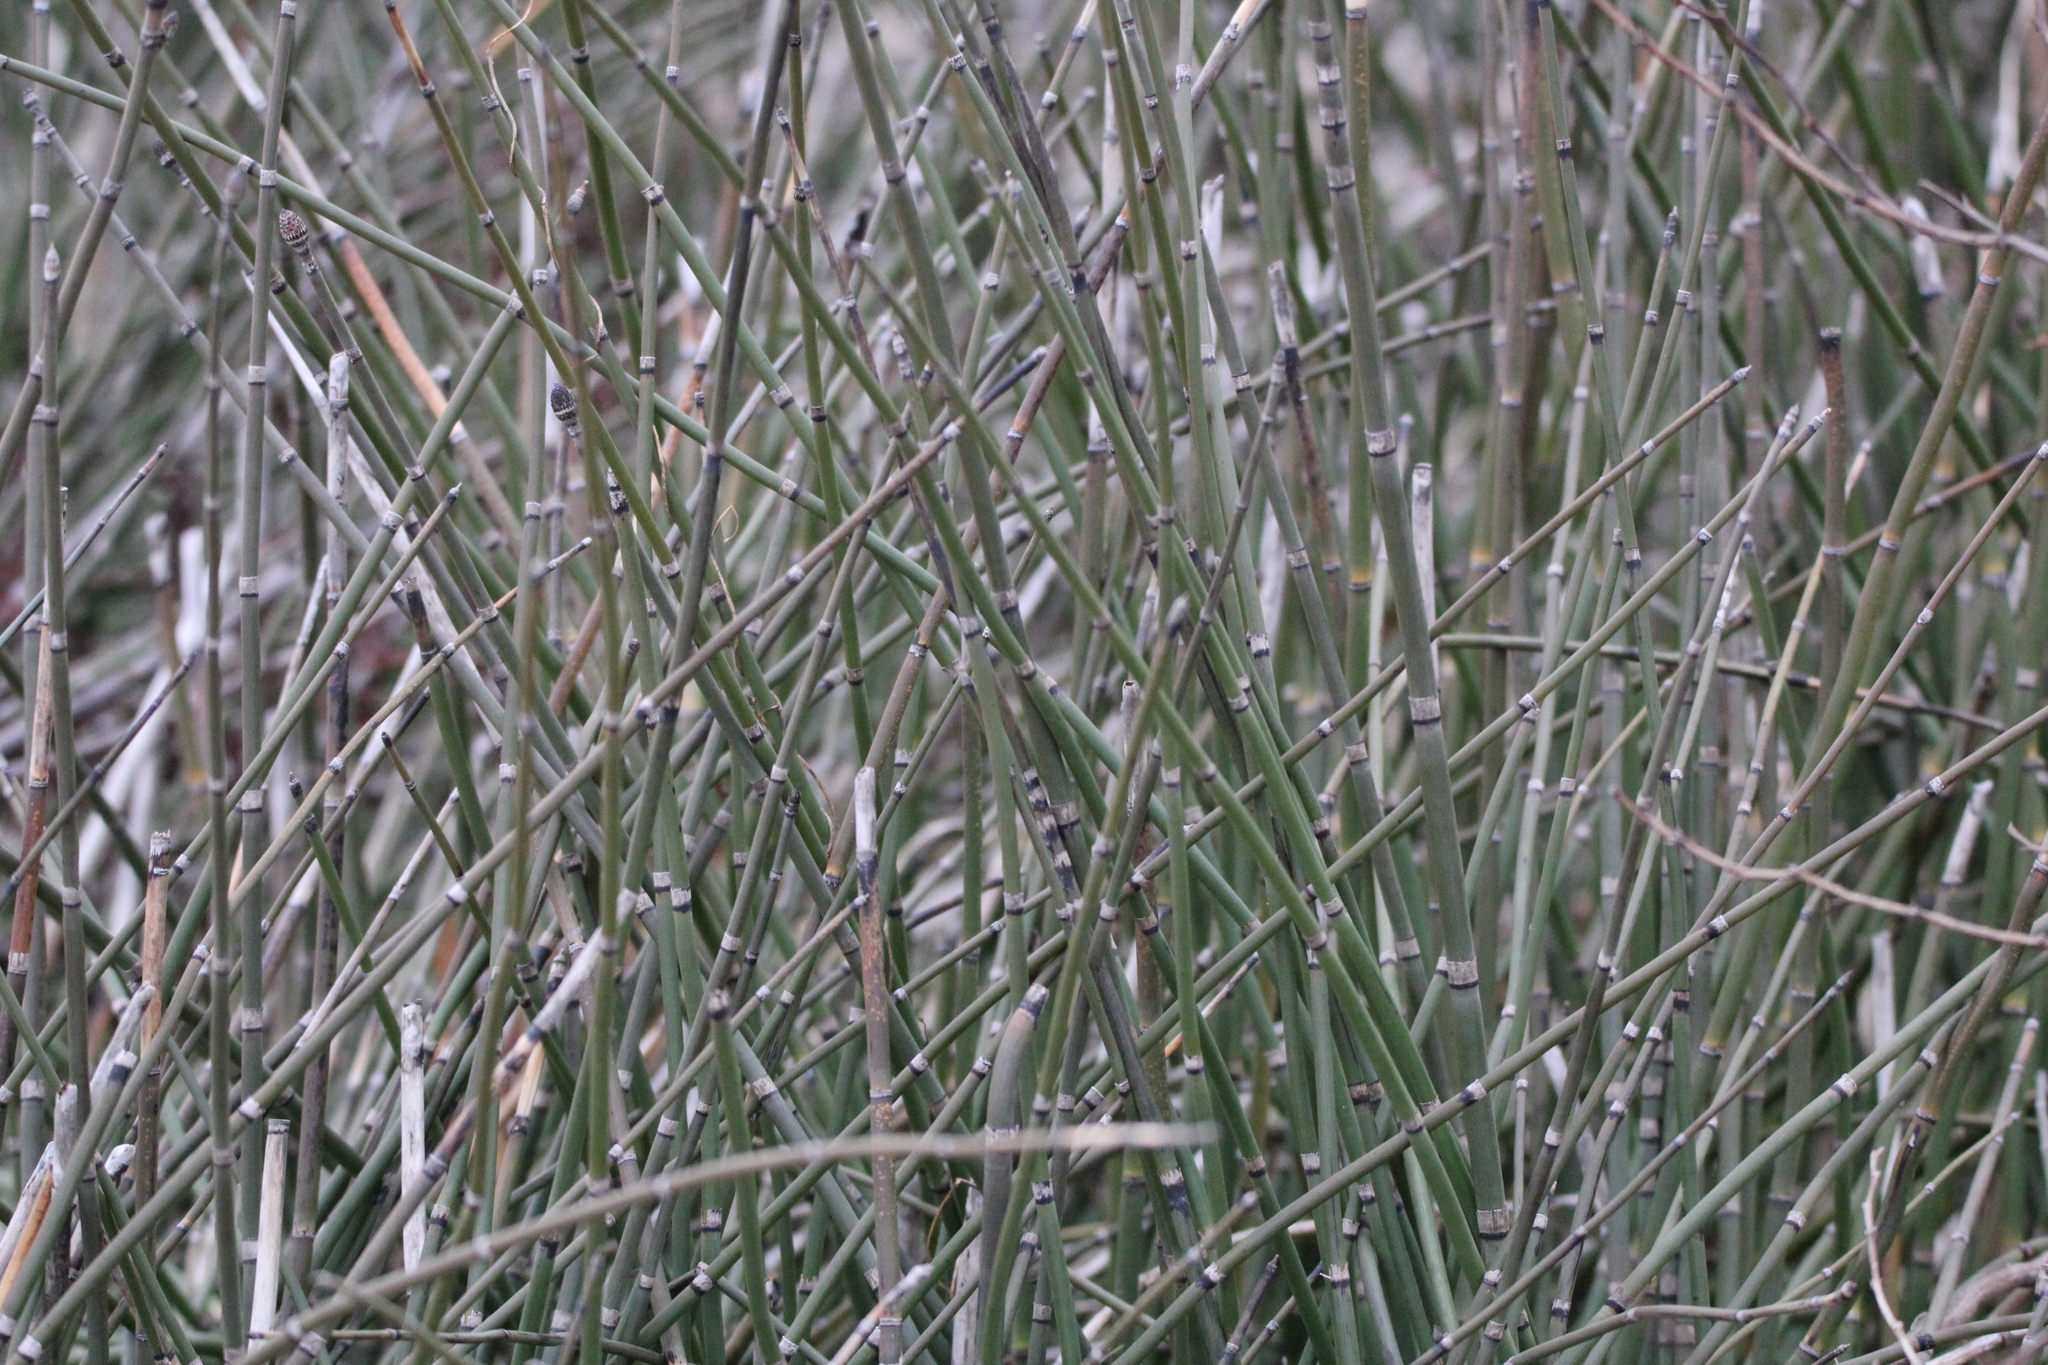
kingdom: Plantae
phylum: Tracheophyta
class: Polypodiopsida
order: Equisetales
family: Equisetaceae
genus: Equisetum
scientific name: Equisetum hyemale
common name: Rough horsetail
